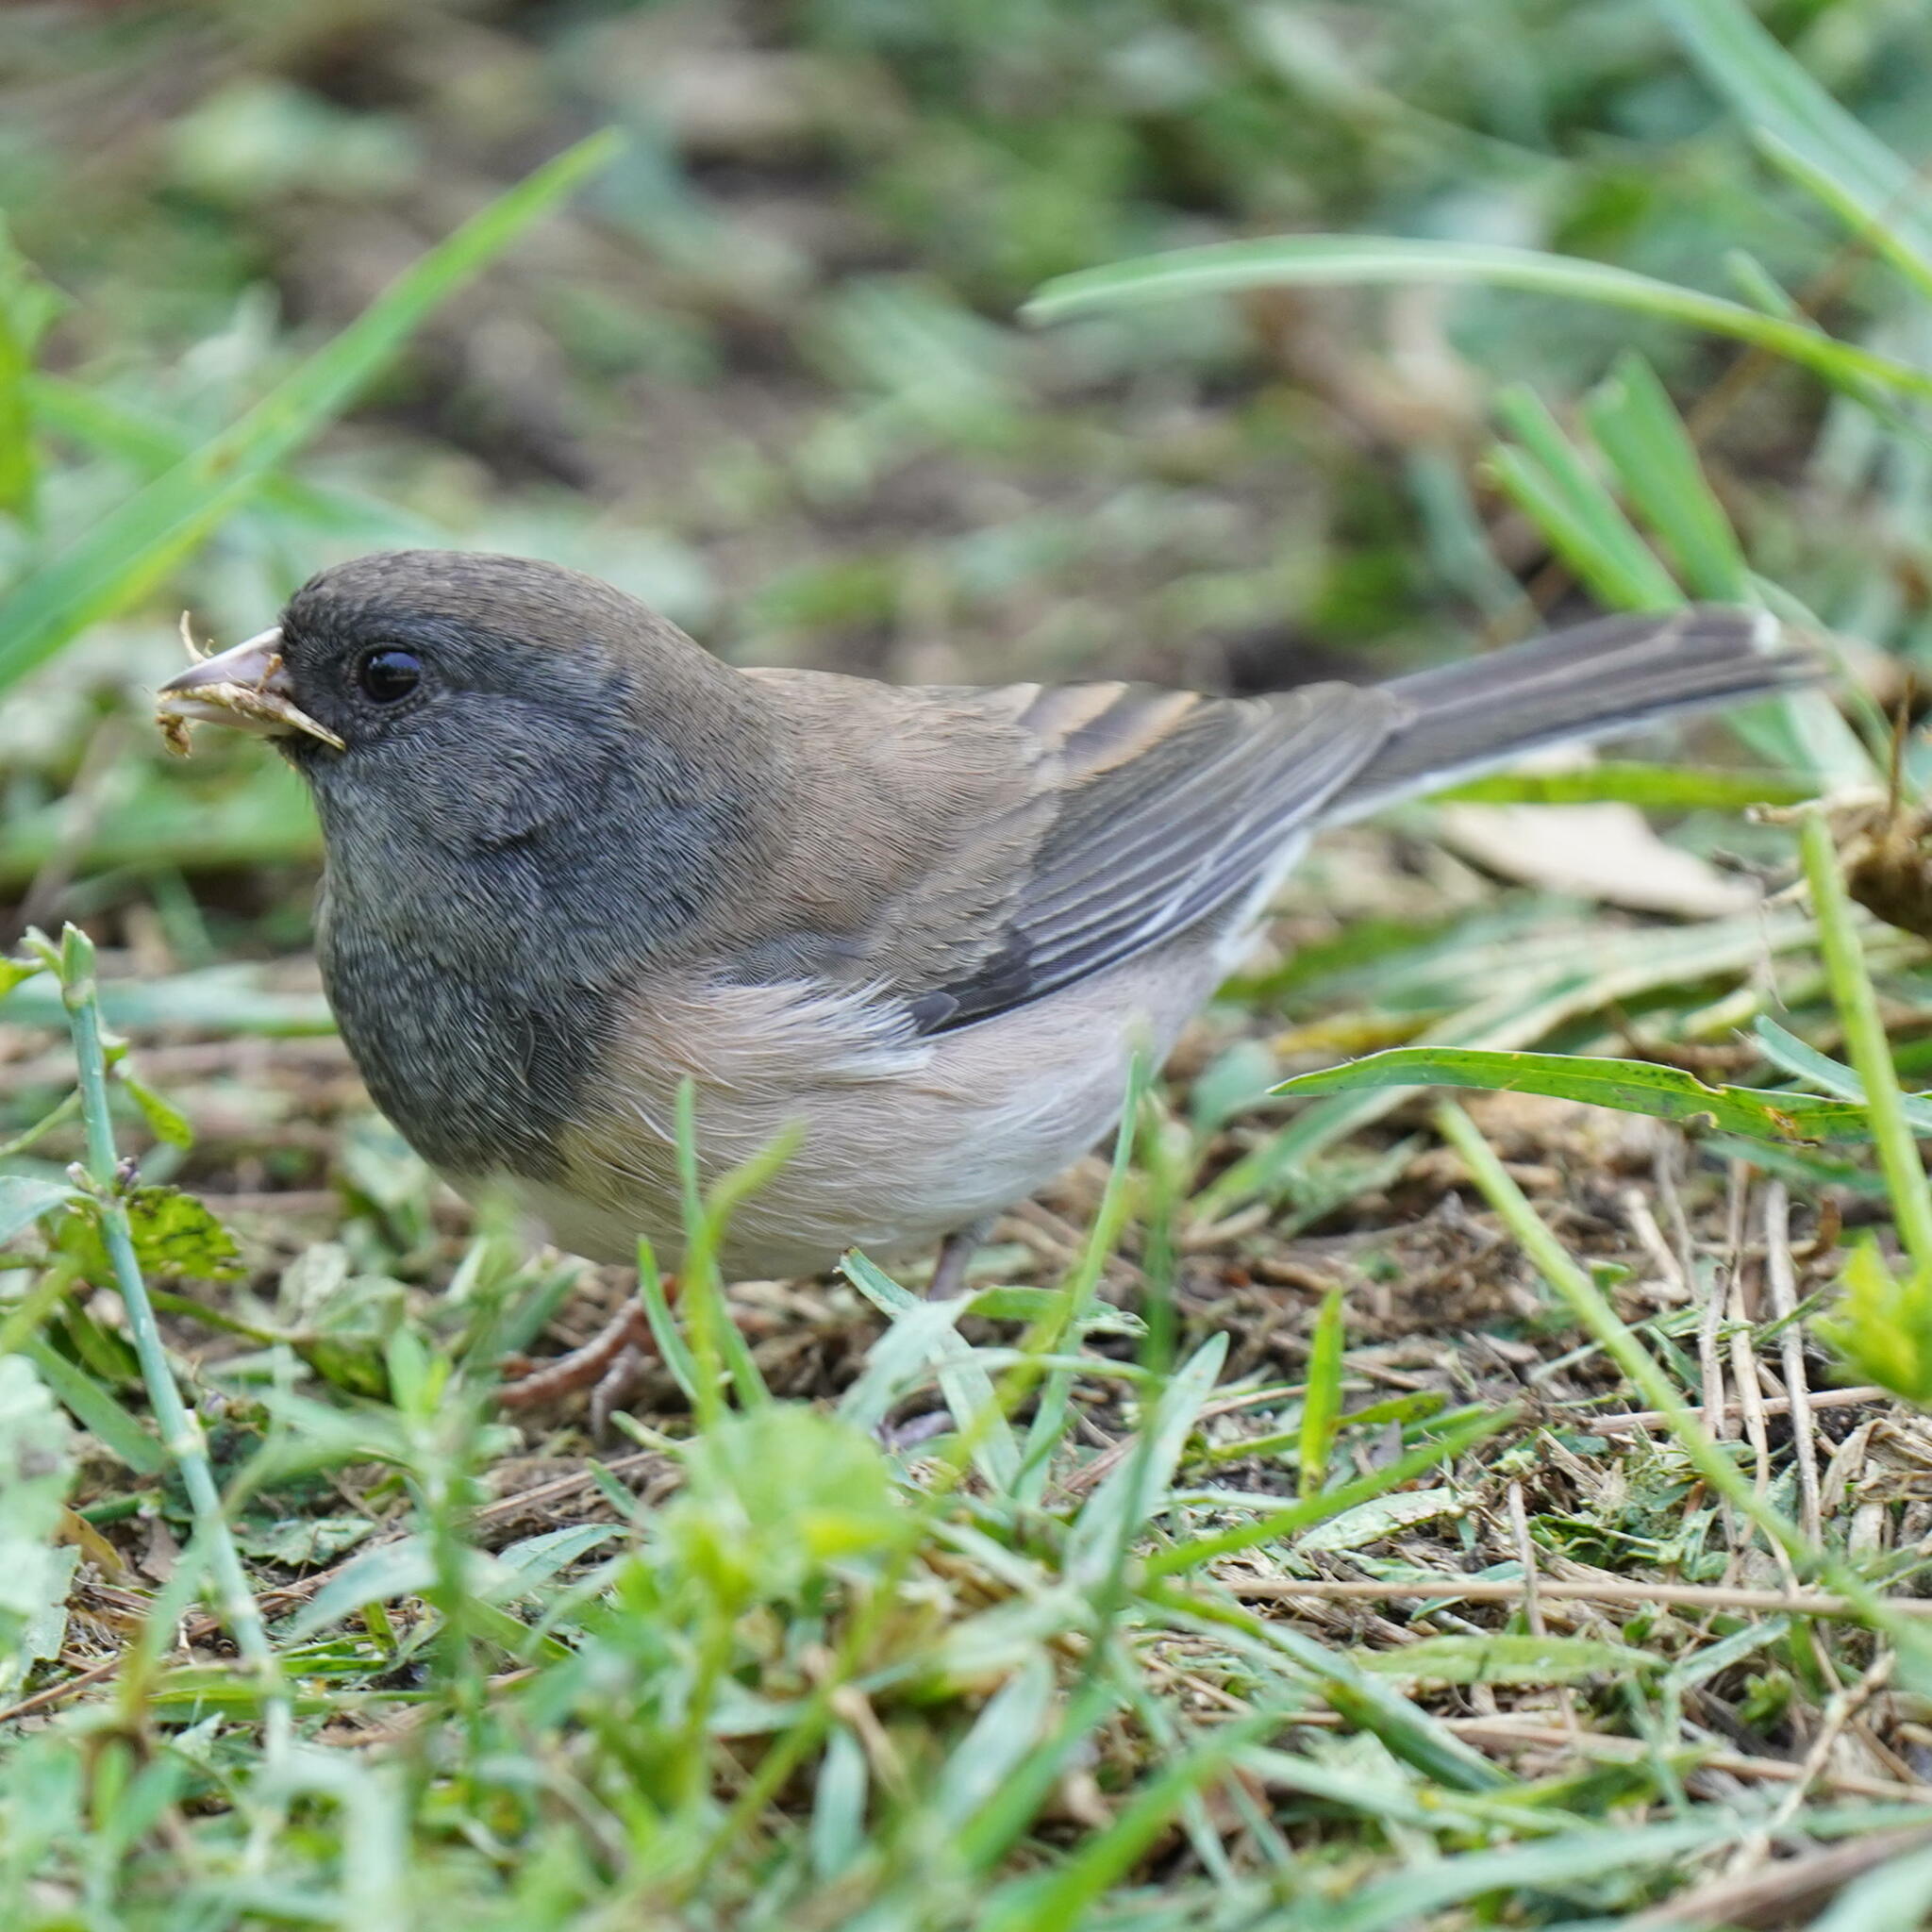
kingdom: Animalia
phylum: Chordata
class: Aves
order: Passeriformes
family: Passerellidae
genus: Junco
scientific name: Junco hyemalis
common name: Dark-eyed junco
